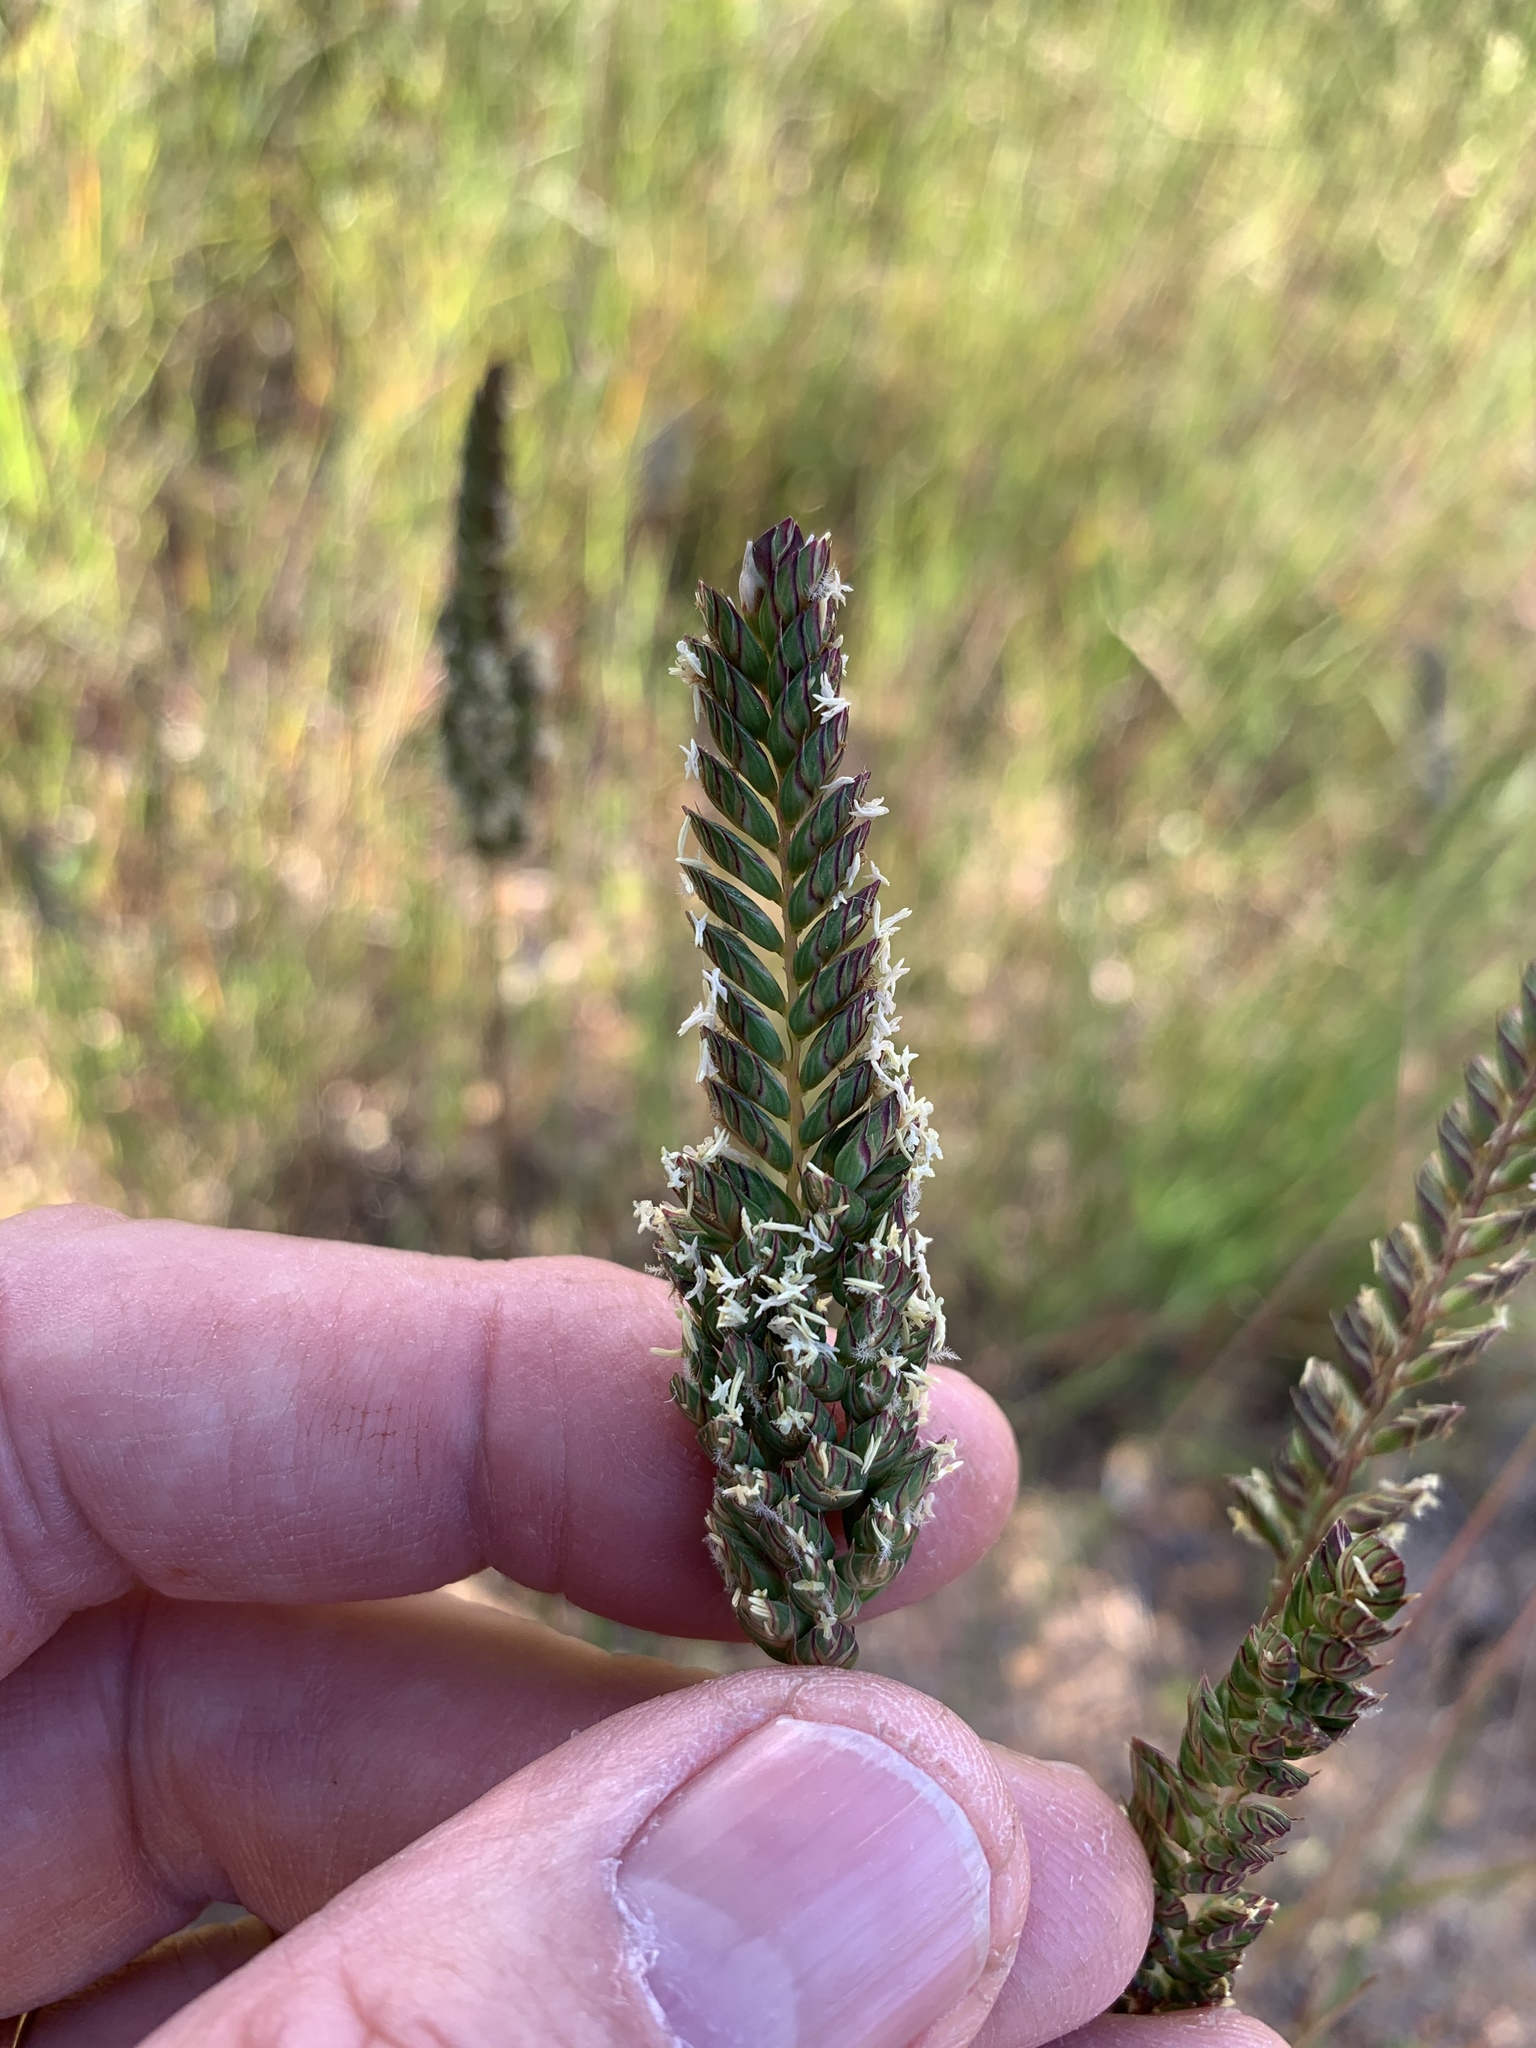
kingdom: Plantae
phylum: Tracheophyta
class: Liliopsida
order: Poales
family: Poaceae
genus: Tribolium
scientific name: Tribolium uniolae
